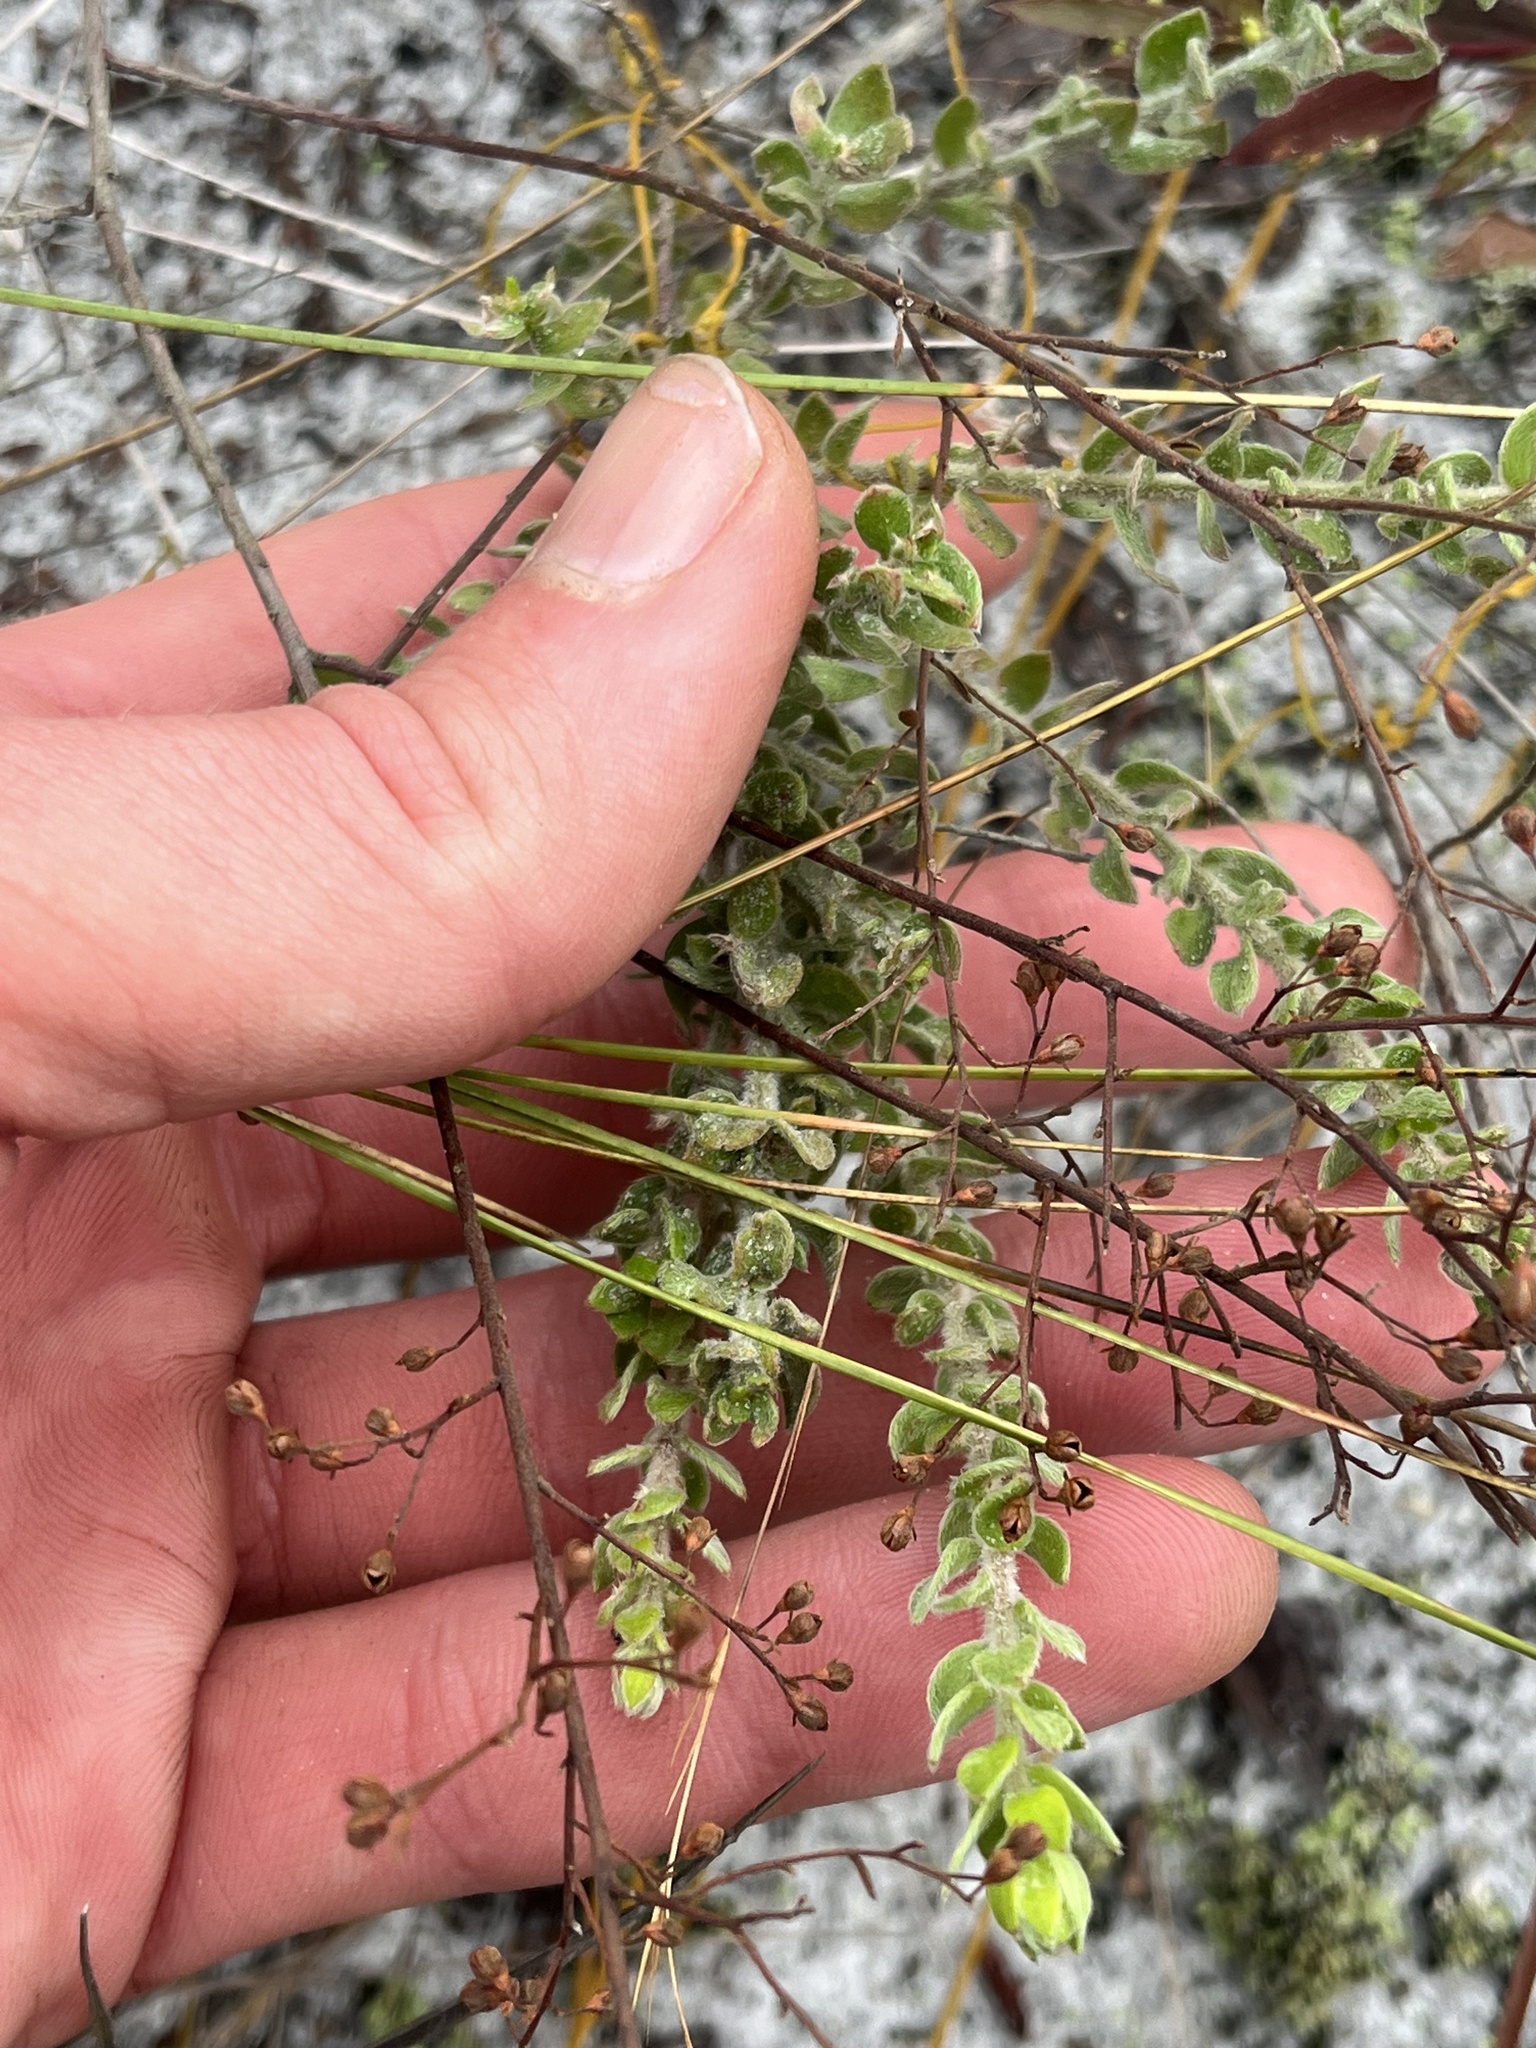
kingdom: Plantae
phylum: Tracheophyta
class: Magnoliopsida
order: Malvales
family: Cistaceae
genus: Lechea
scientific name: Lechea cernua
